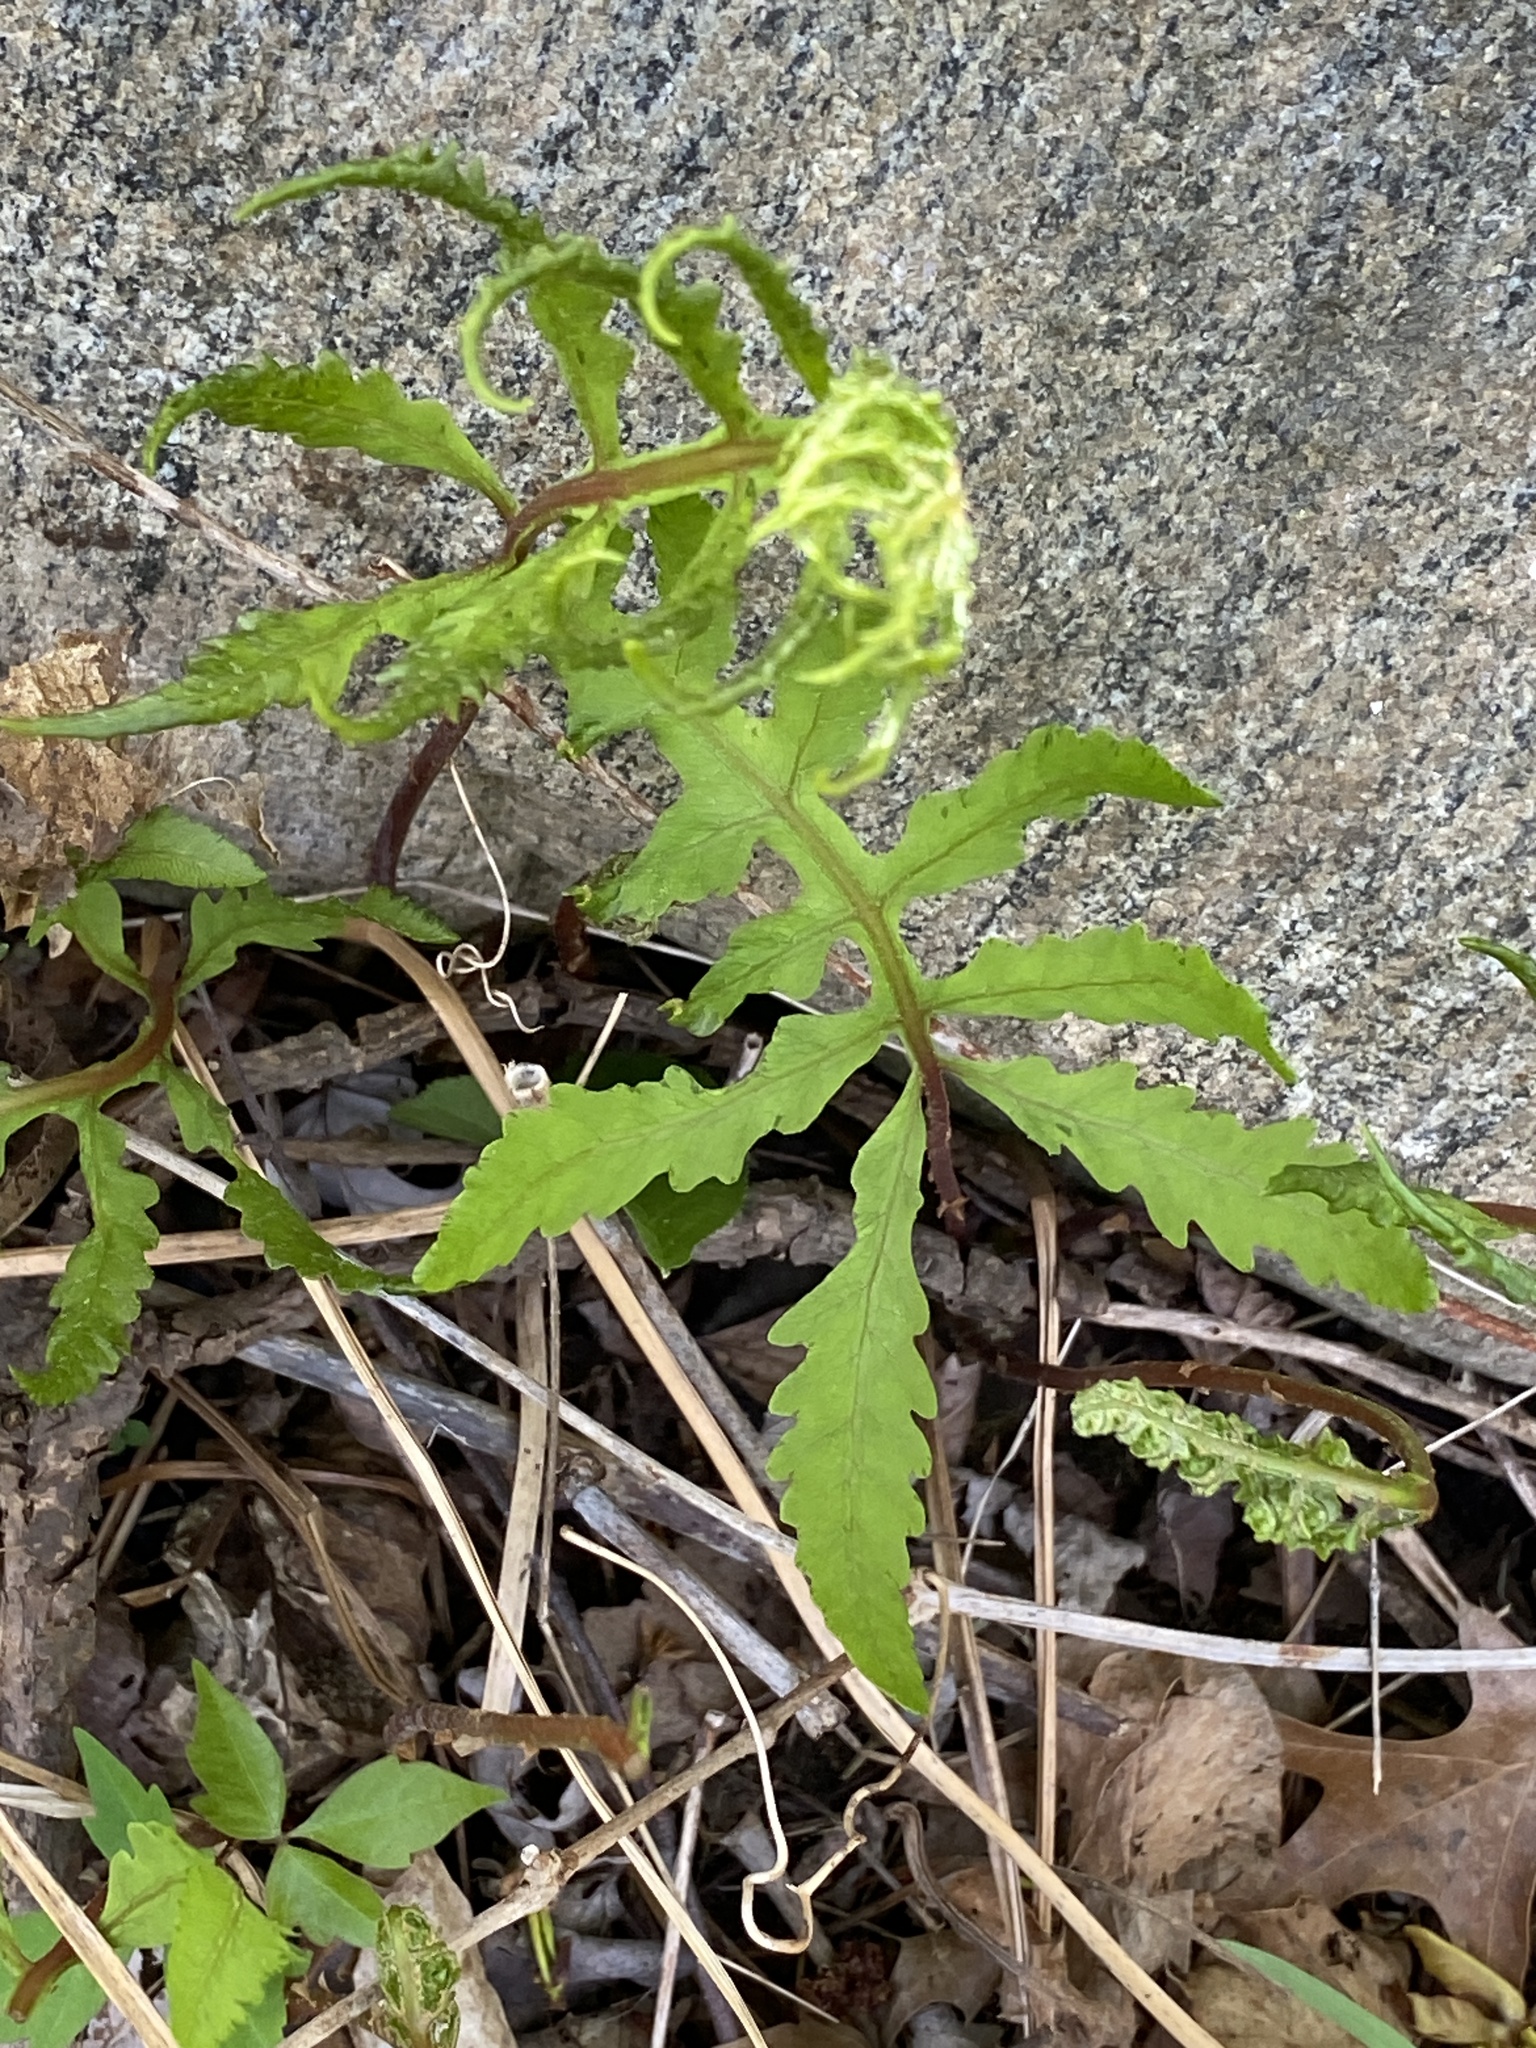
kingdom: Plantae
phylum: Tracheophyta
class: Polypodiopsida
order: Polypodiales
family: Onocleaceae
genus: Onoclea
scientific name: Onoclea sensibilis
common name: Sensitive fern
